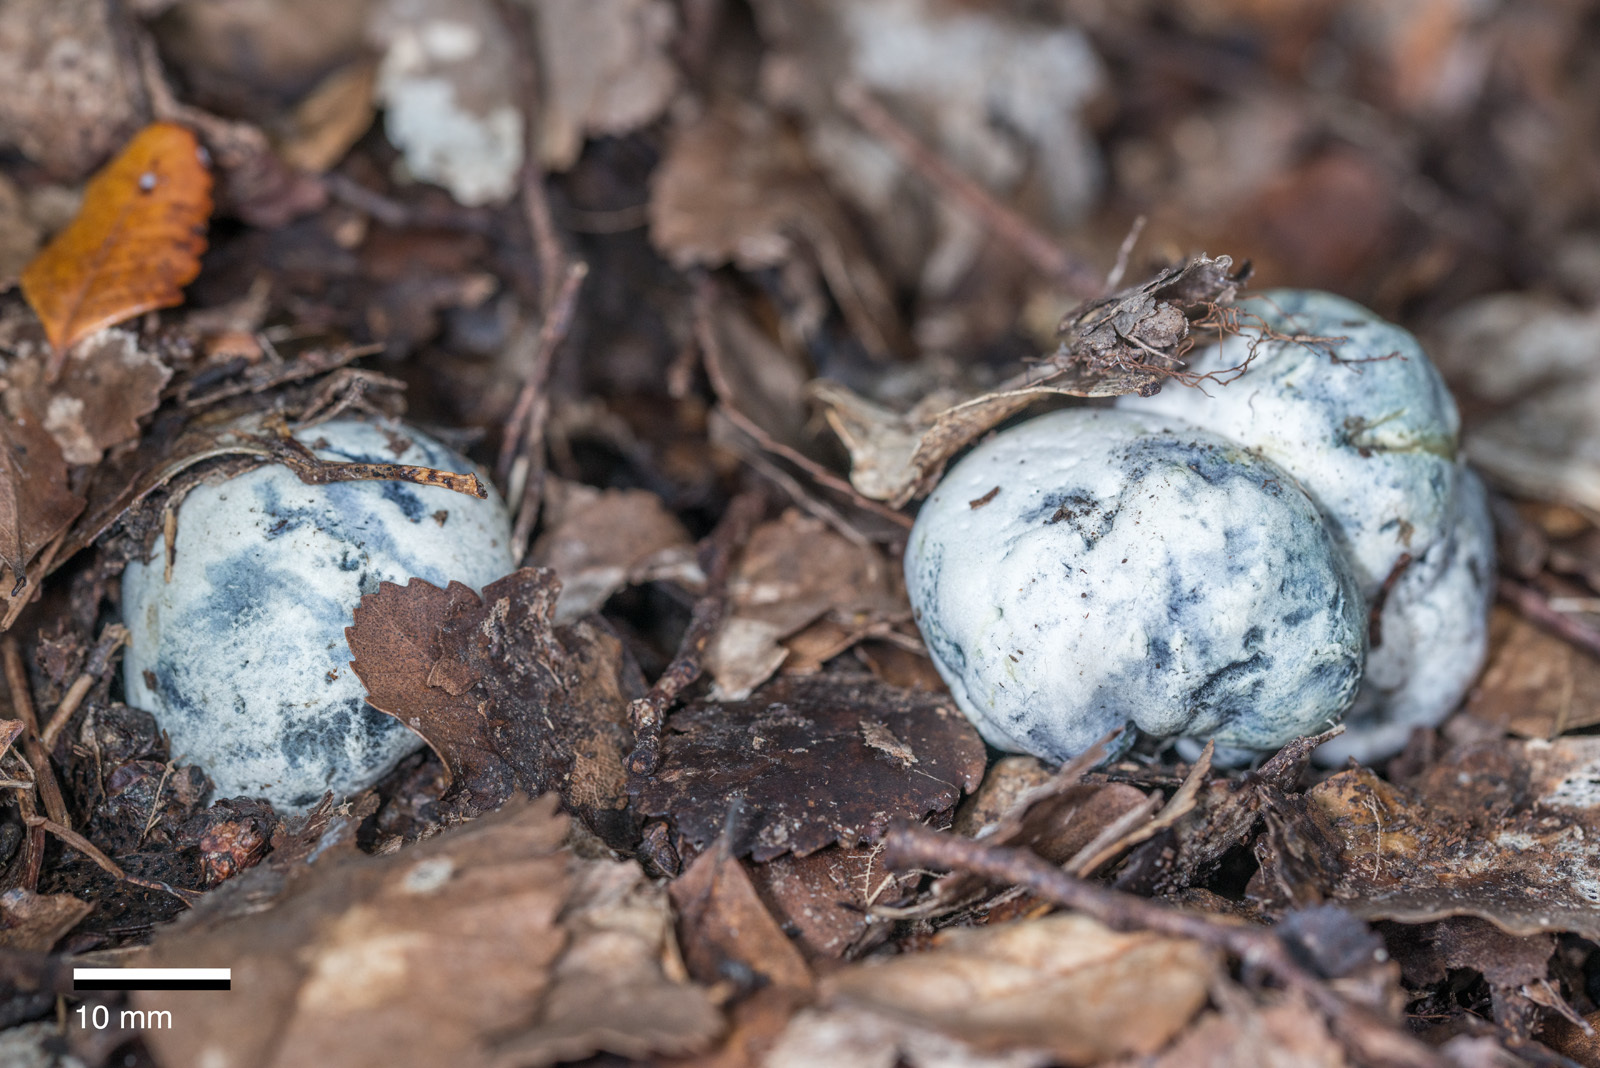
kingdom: Fungi
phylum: Basidiomycota
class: Agaricomycetes
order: Boletales
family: Boletaceae
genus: Leccinum
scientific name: Leccinum pachyderme
